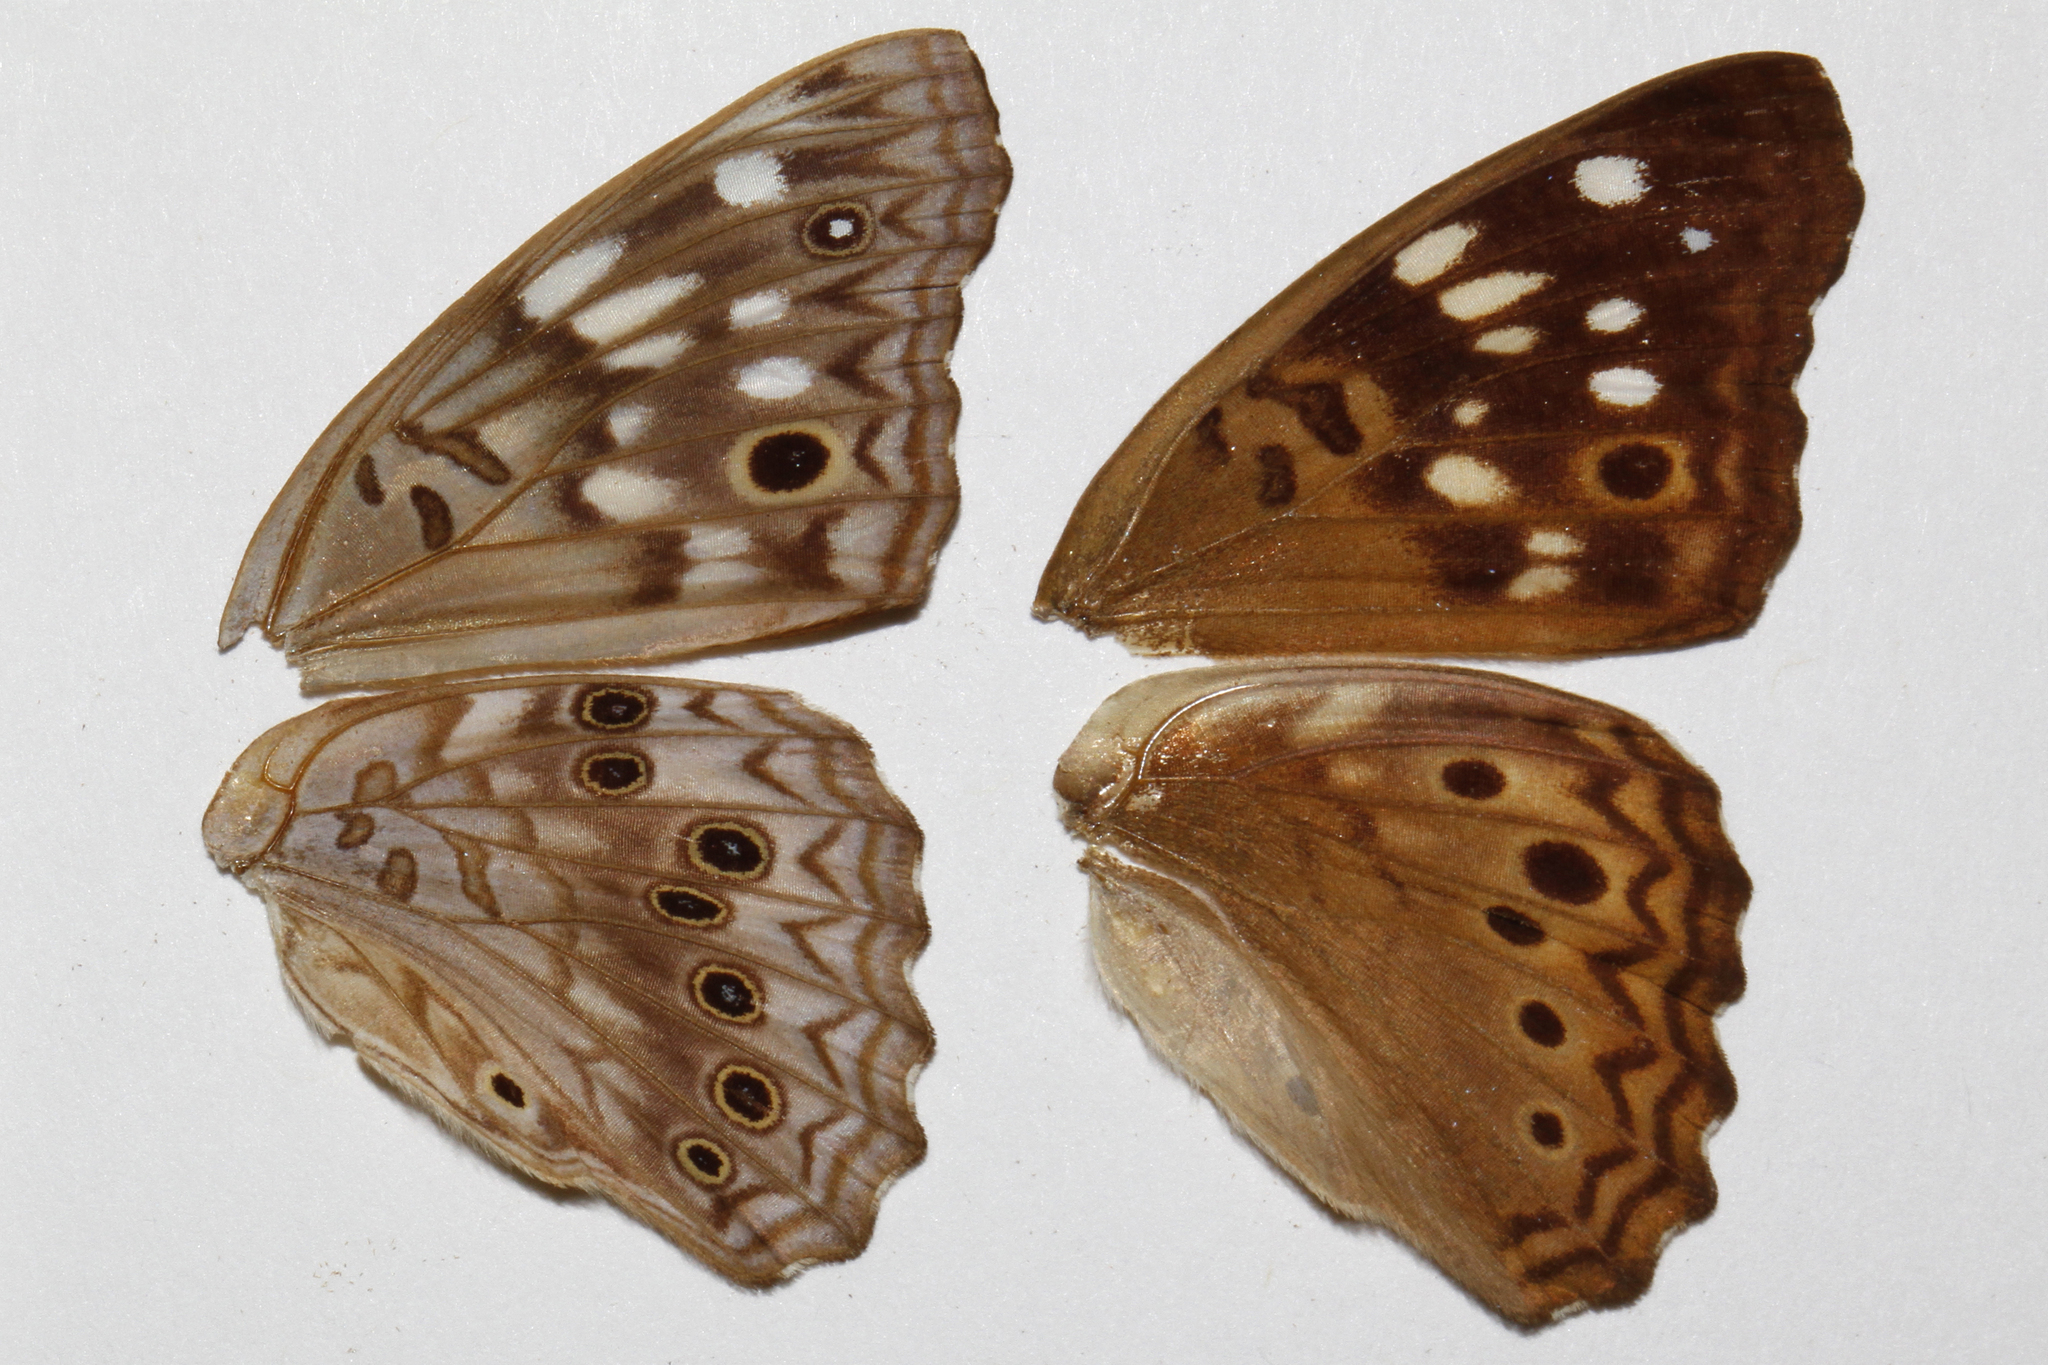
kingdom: Animalia
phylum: Arthropoda
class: Insecta
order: Lepidoptera
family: Nymphalidae
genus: Asterocampa
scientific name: Asterocampa celtis
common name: Hackberry emperor
